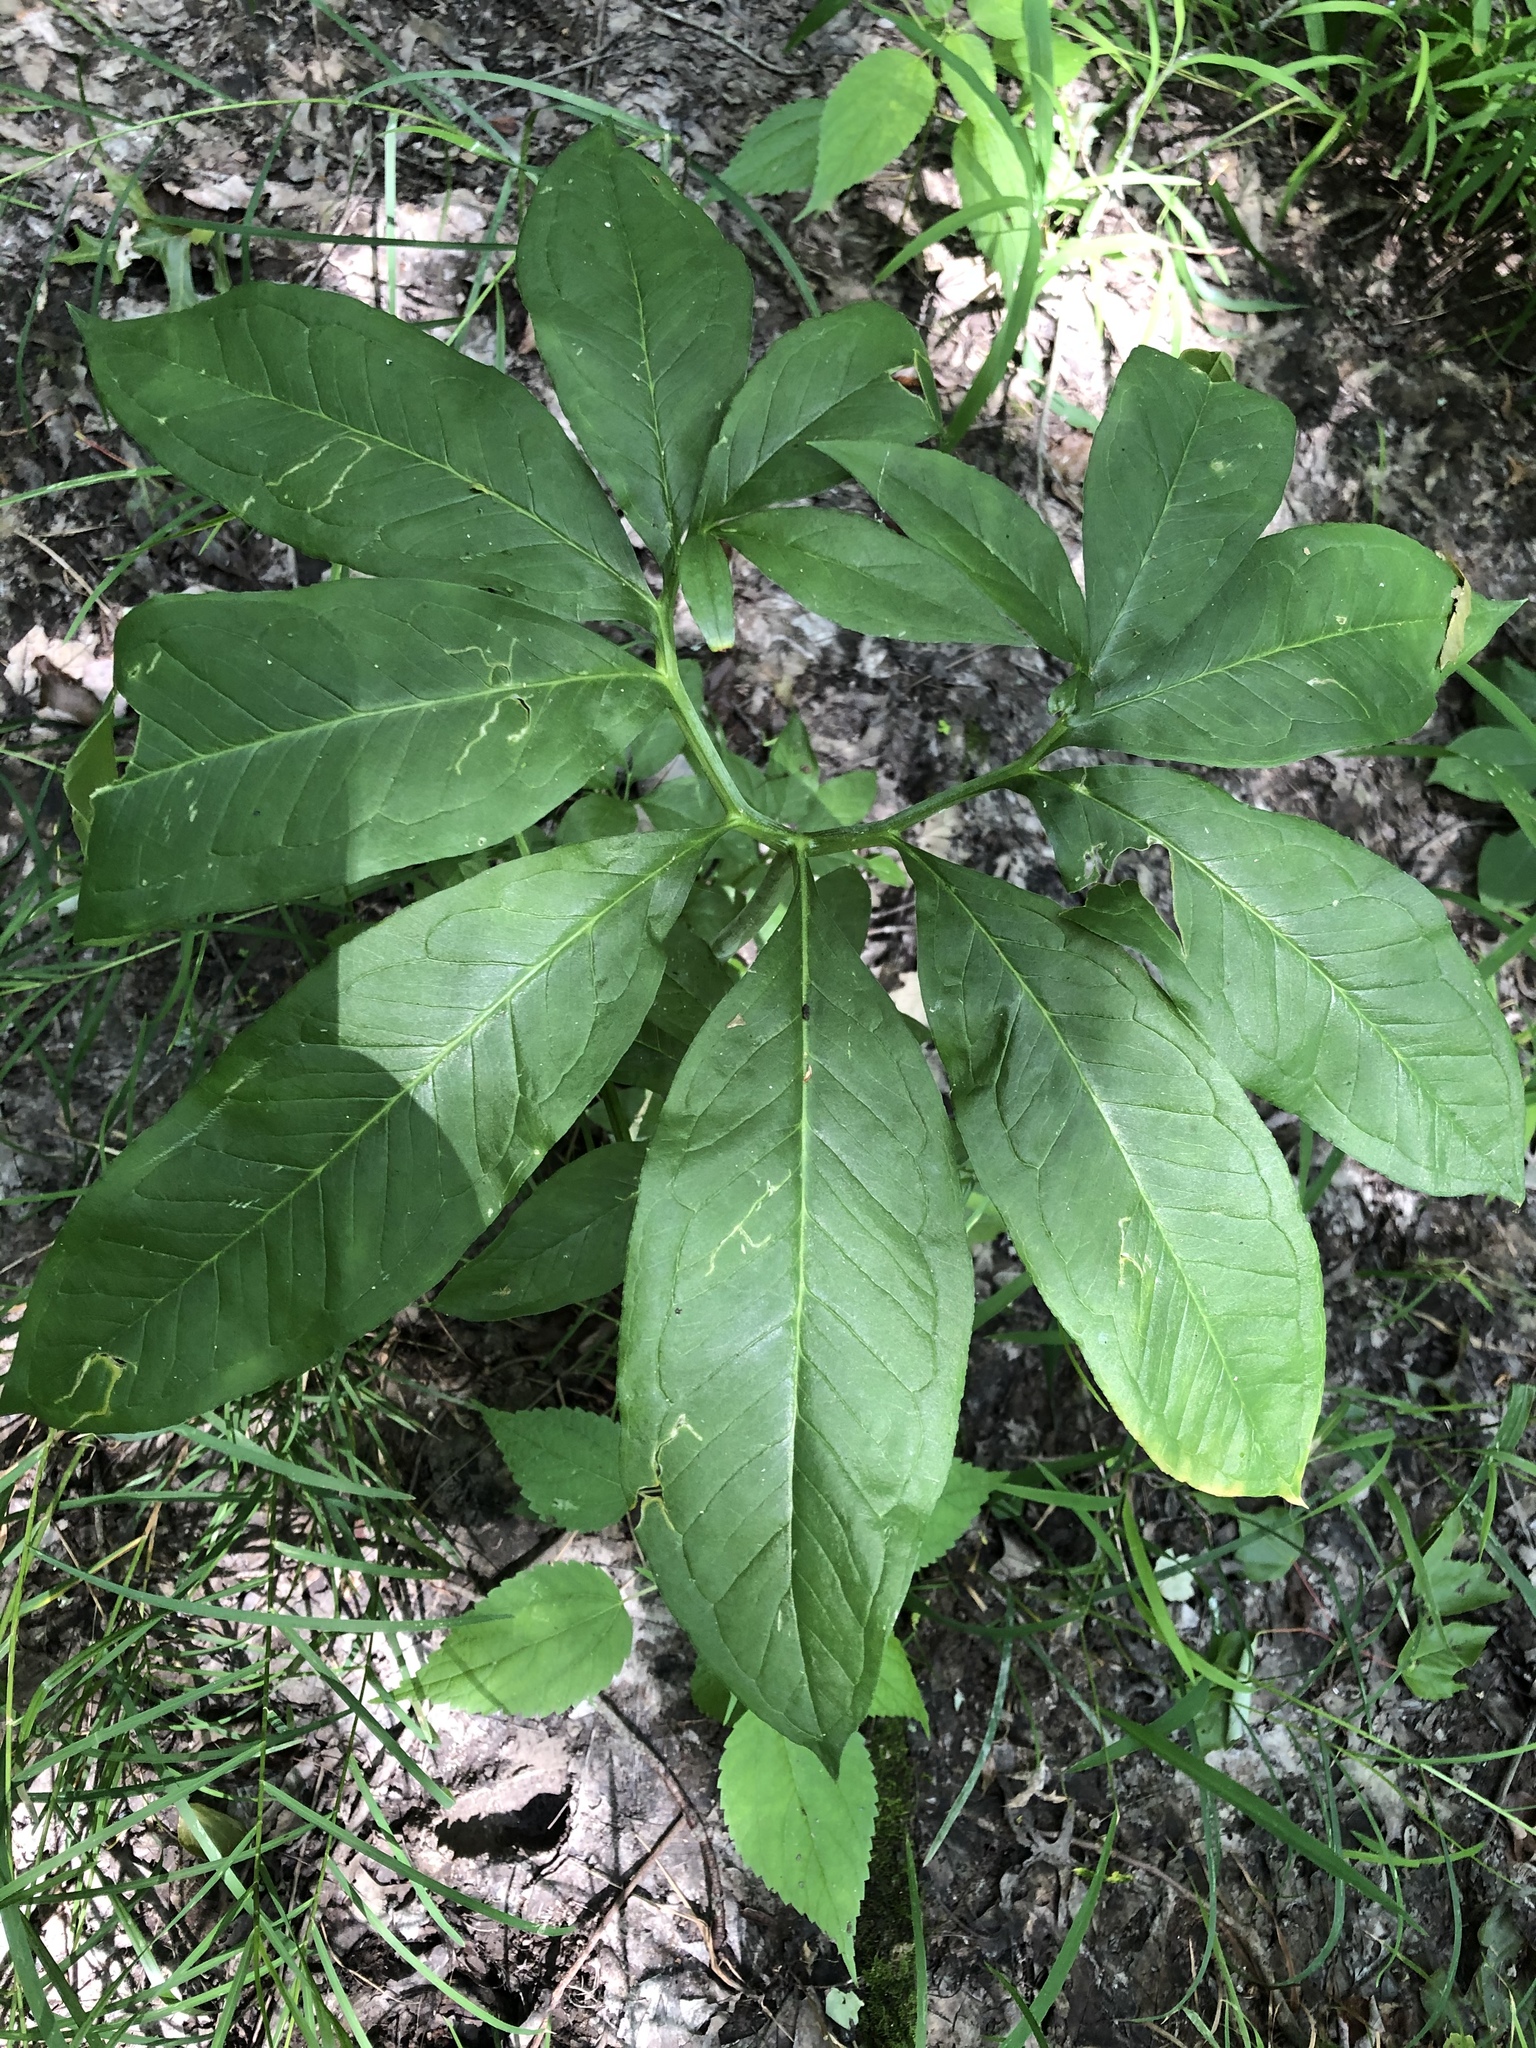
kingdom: Plantae
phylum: Tracheophyta
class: Liliopsida
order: Alismatales
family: Araceae
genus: Arisaema
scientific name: Arisaema dracontium
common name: Dragon-arum
